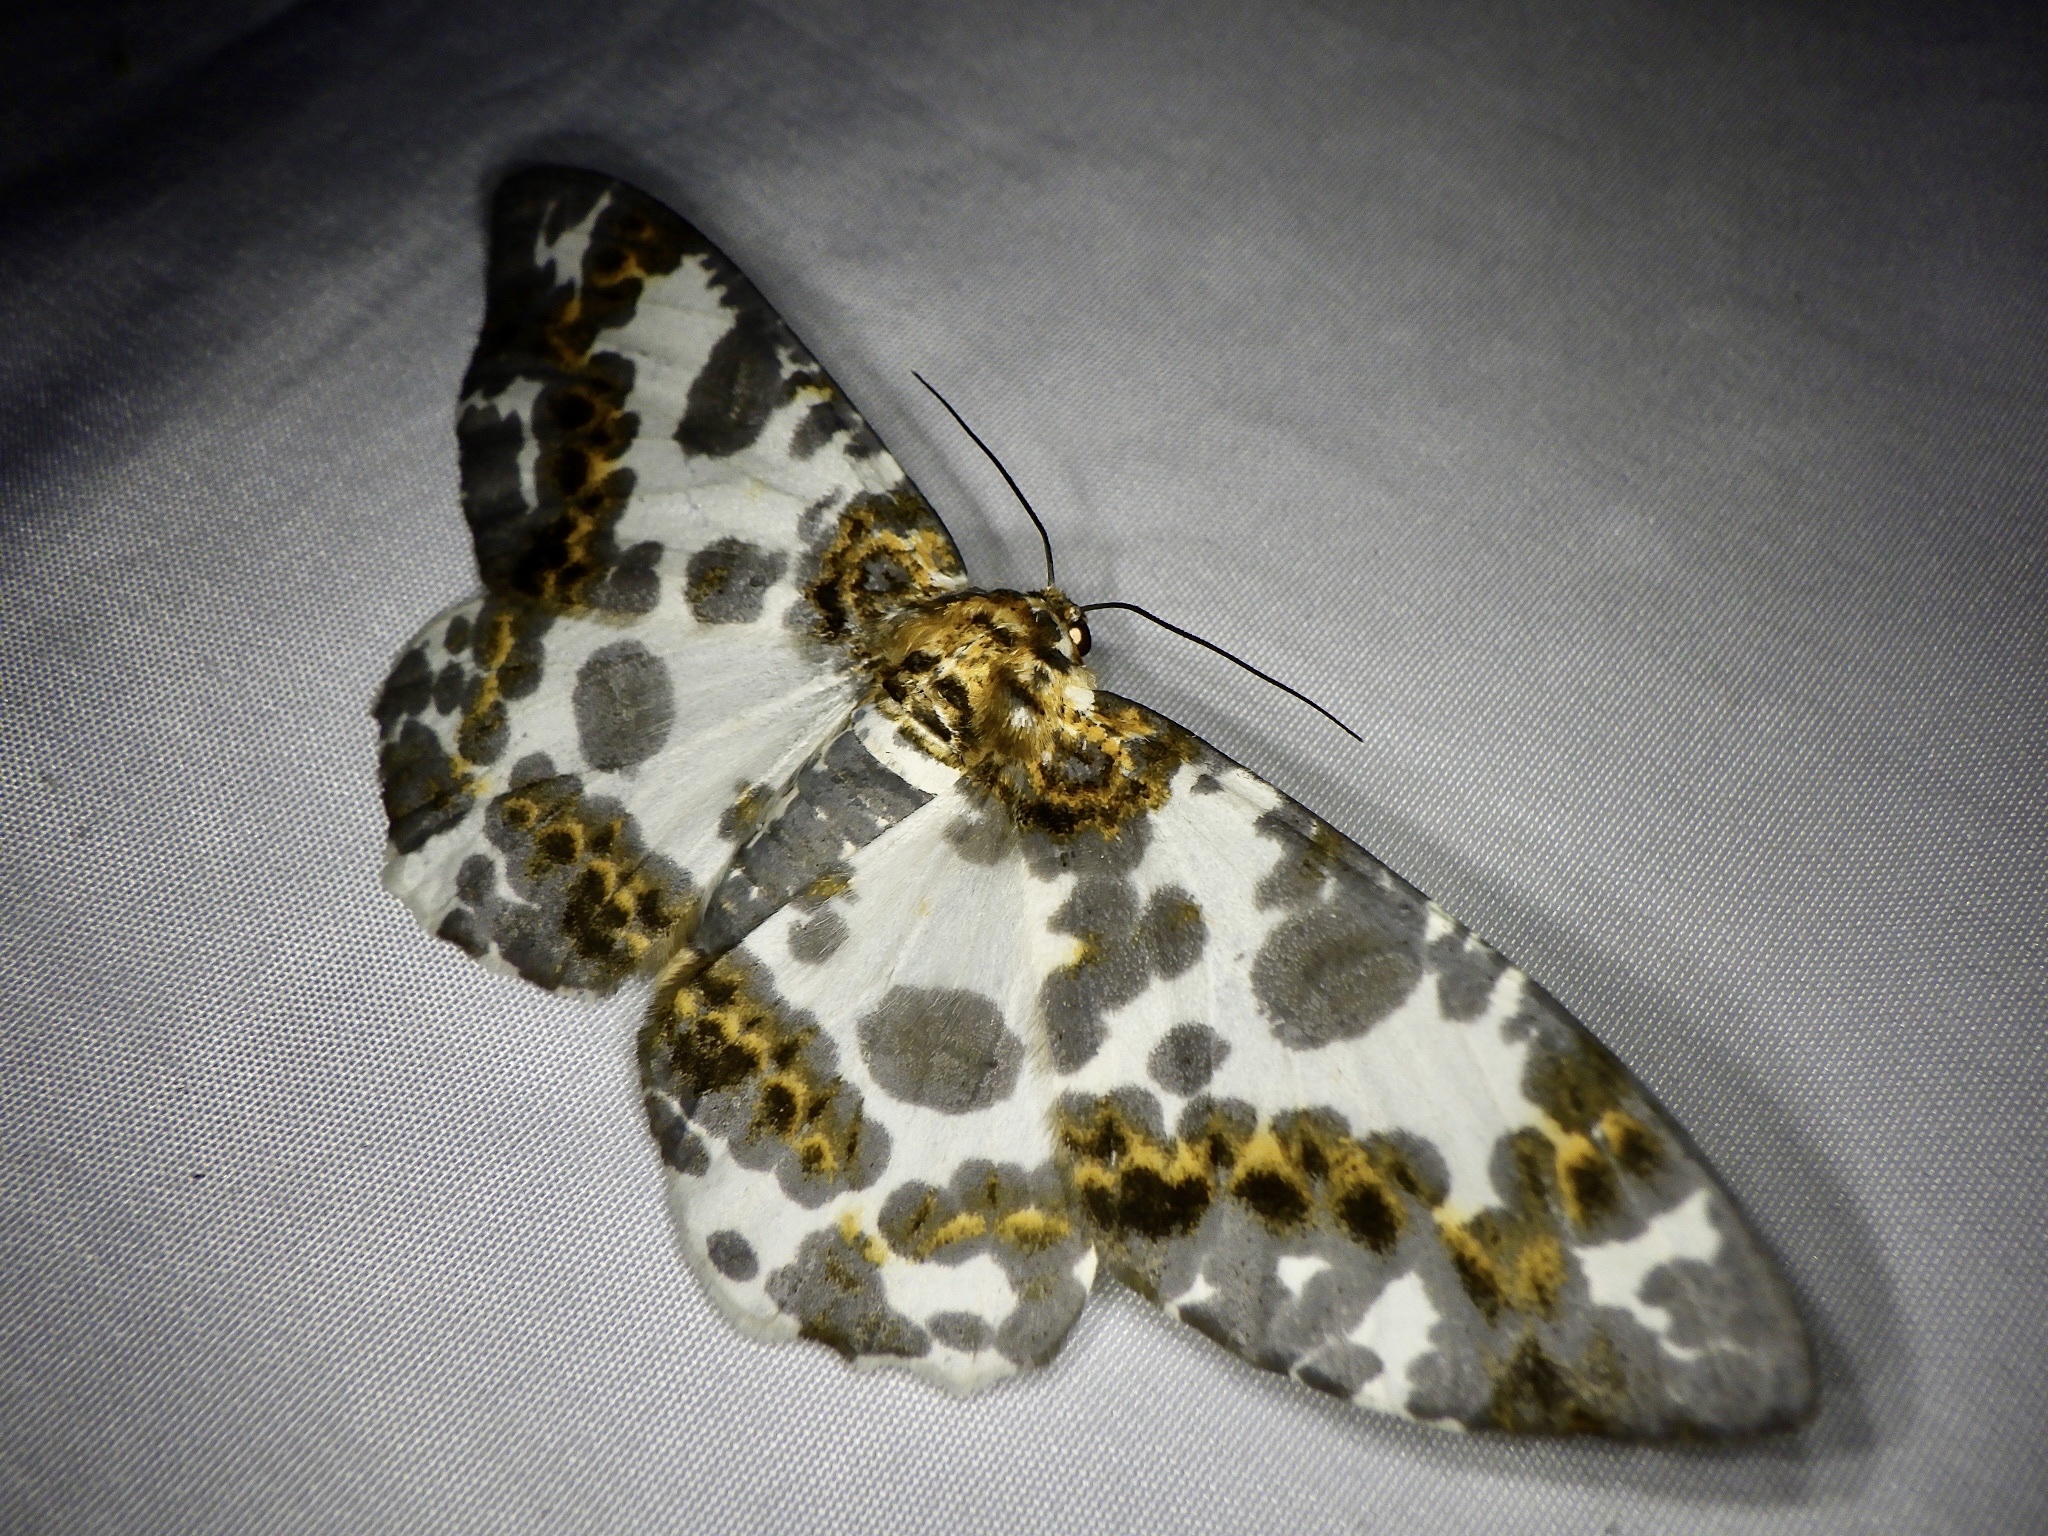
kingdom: Animalia
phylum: Arthropoda
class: Insecta
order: Lepidoptera
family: Geometridae
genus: Biston
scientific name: Biston panterinaria
